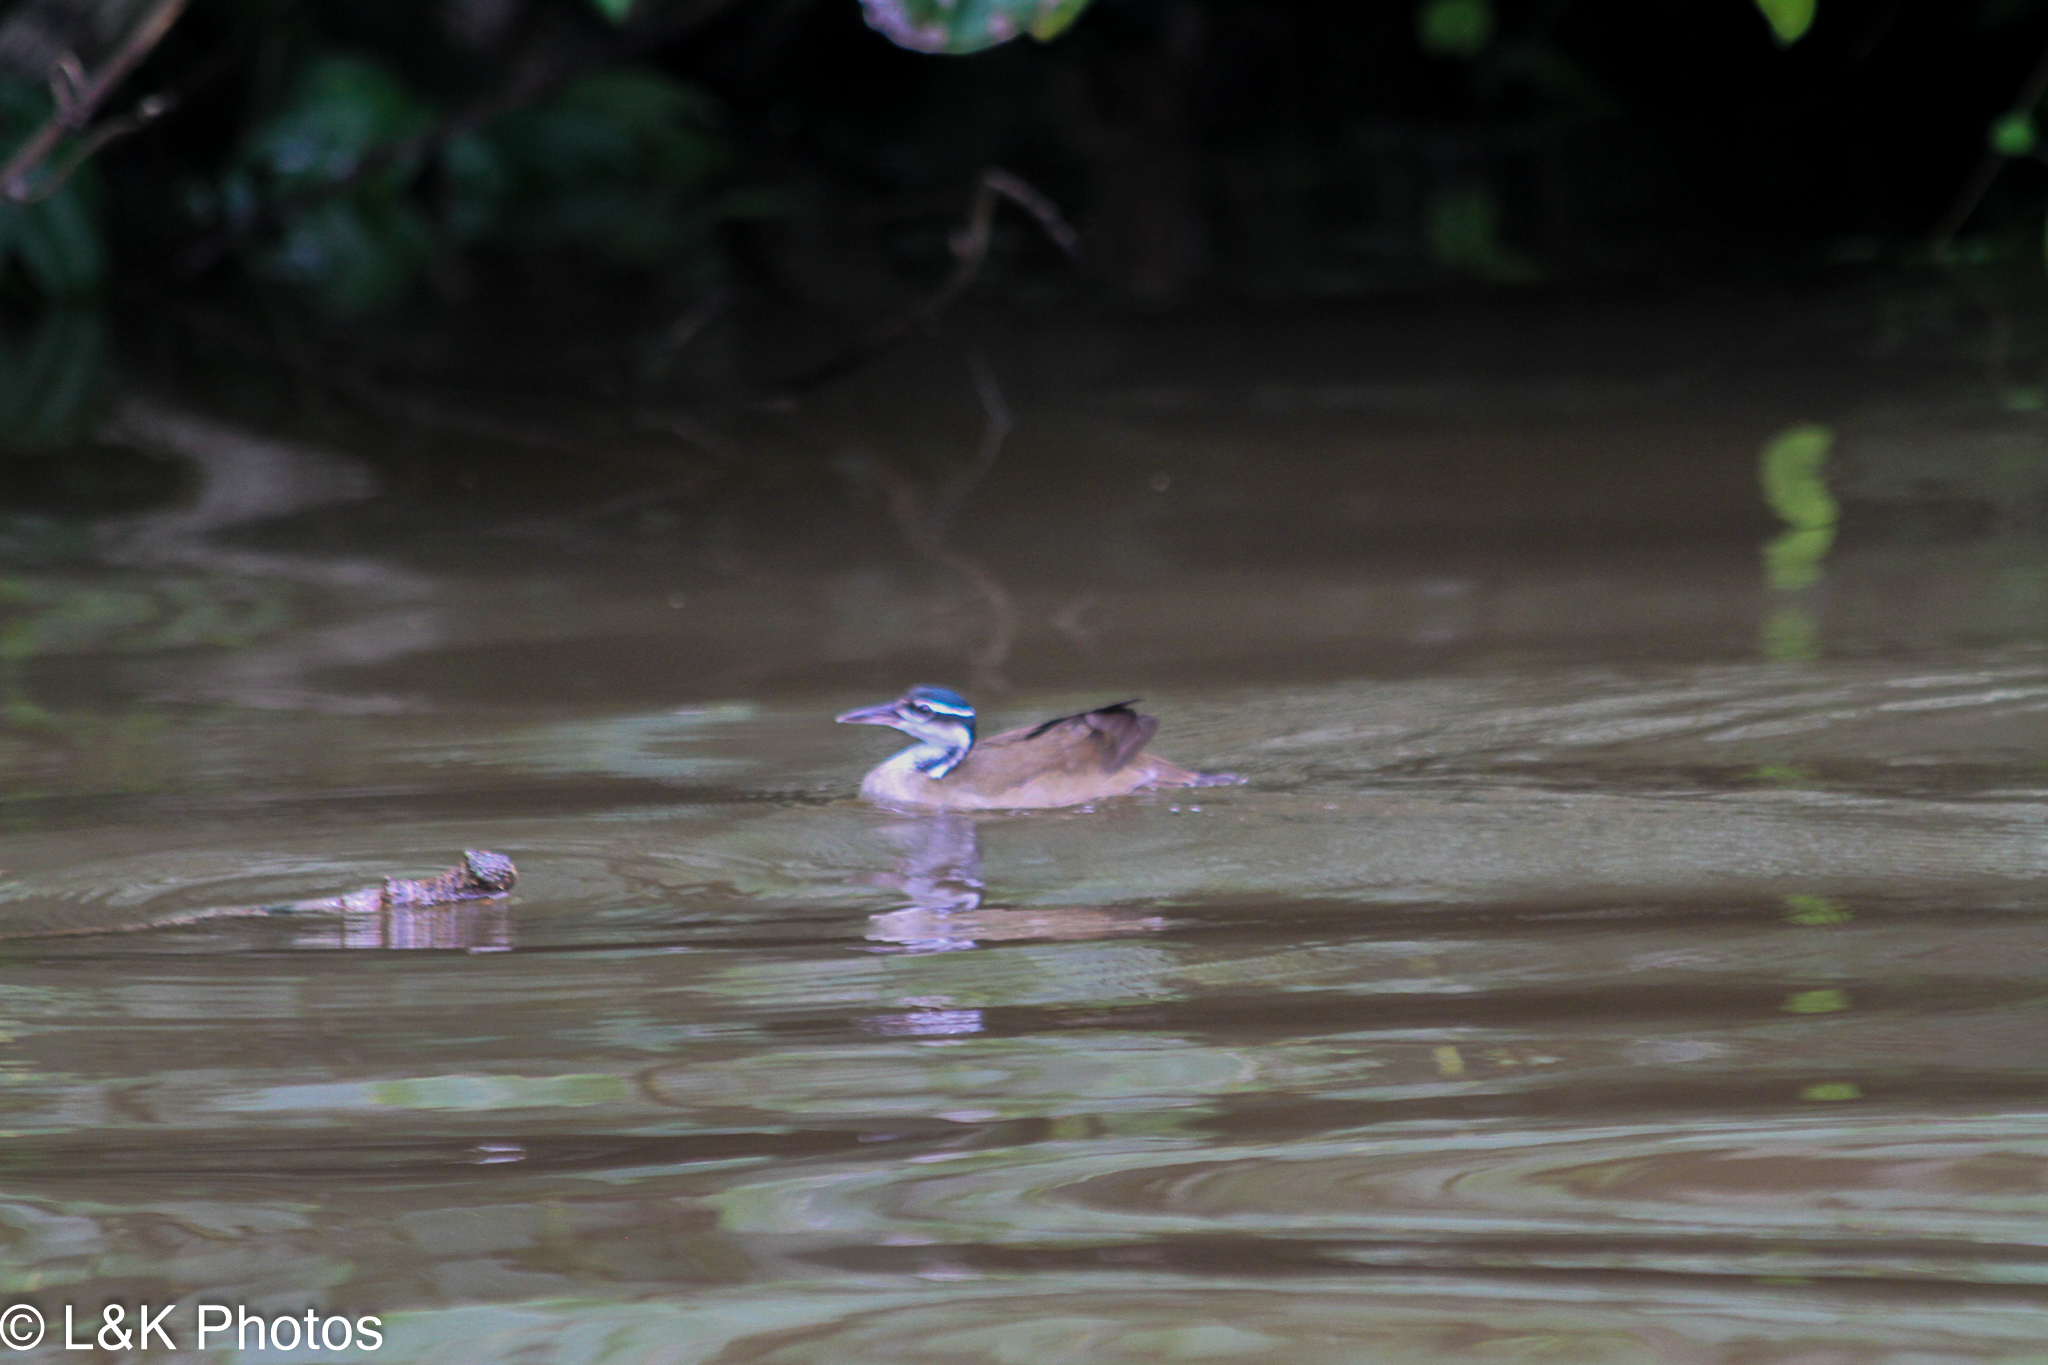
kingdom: Animalia
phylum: Chordata
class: Aves
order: Gruiformes
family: Heliornithidae
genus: Heliornis
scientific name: Heliornis fulica
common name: Sungrebe
